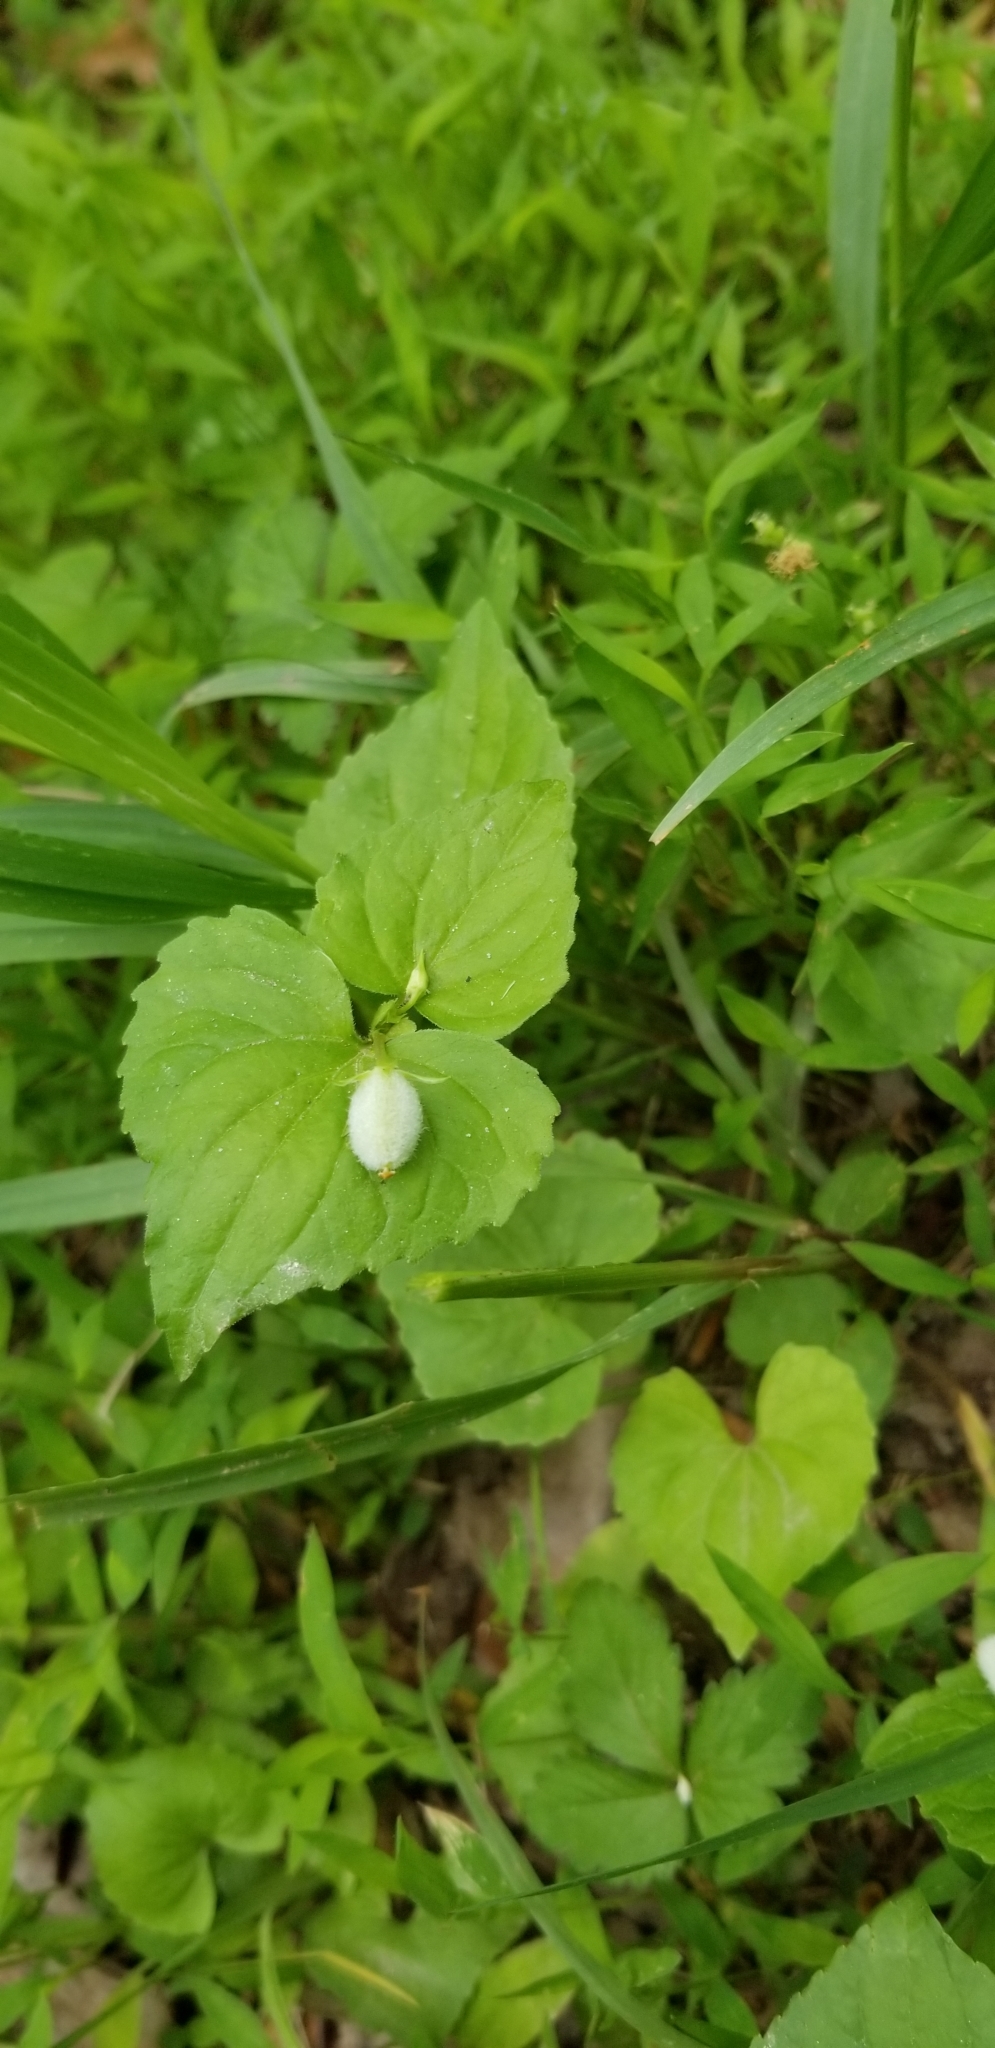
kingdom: Plantae
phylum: Tracheophyta
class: Magnoliopsida
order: Malpighiales
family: Violaceae
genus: Viola
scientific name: Viola eriocarpa
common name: Smooth yellow violet
